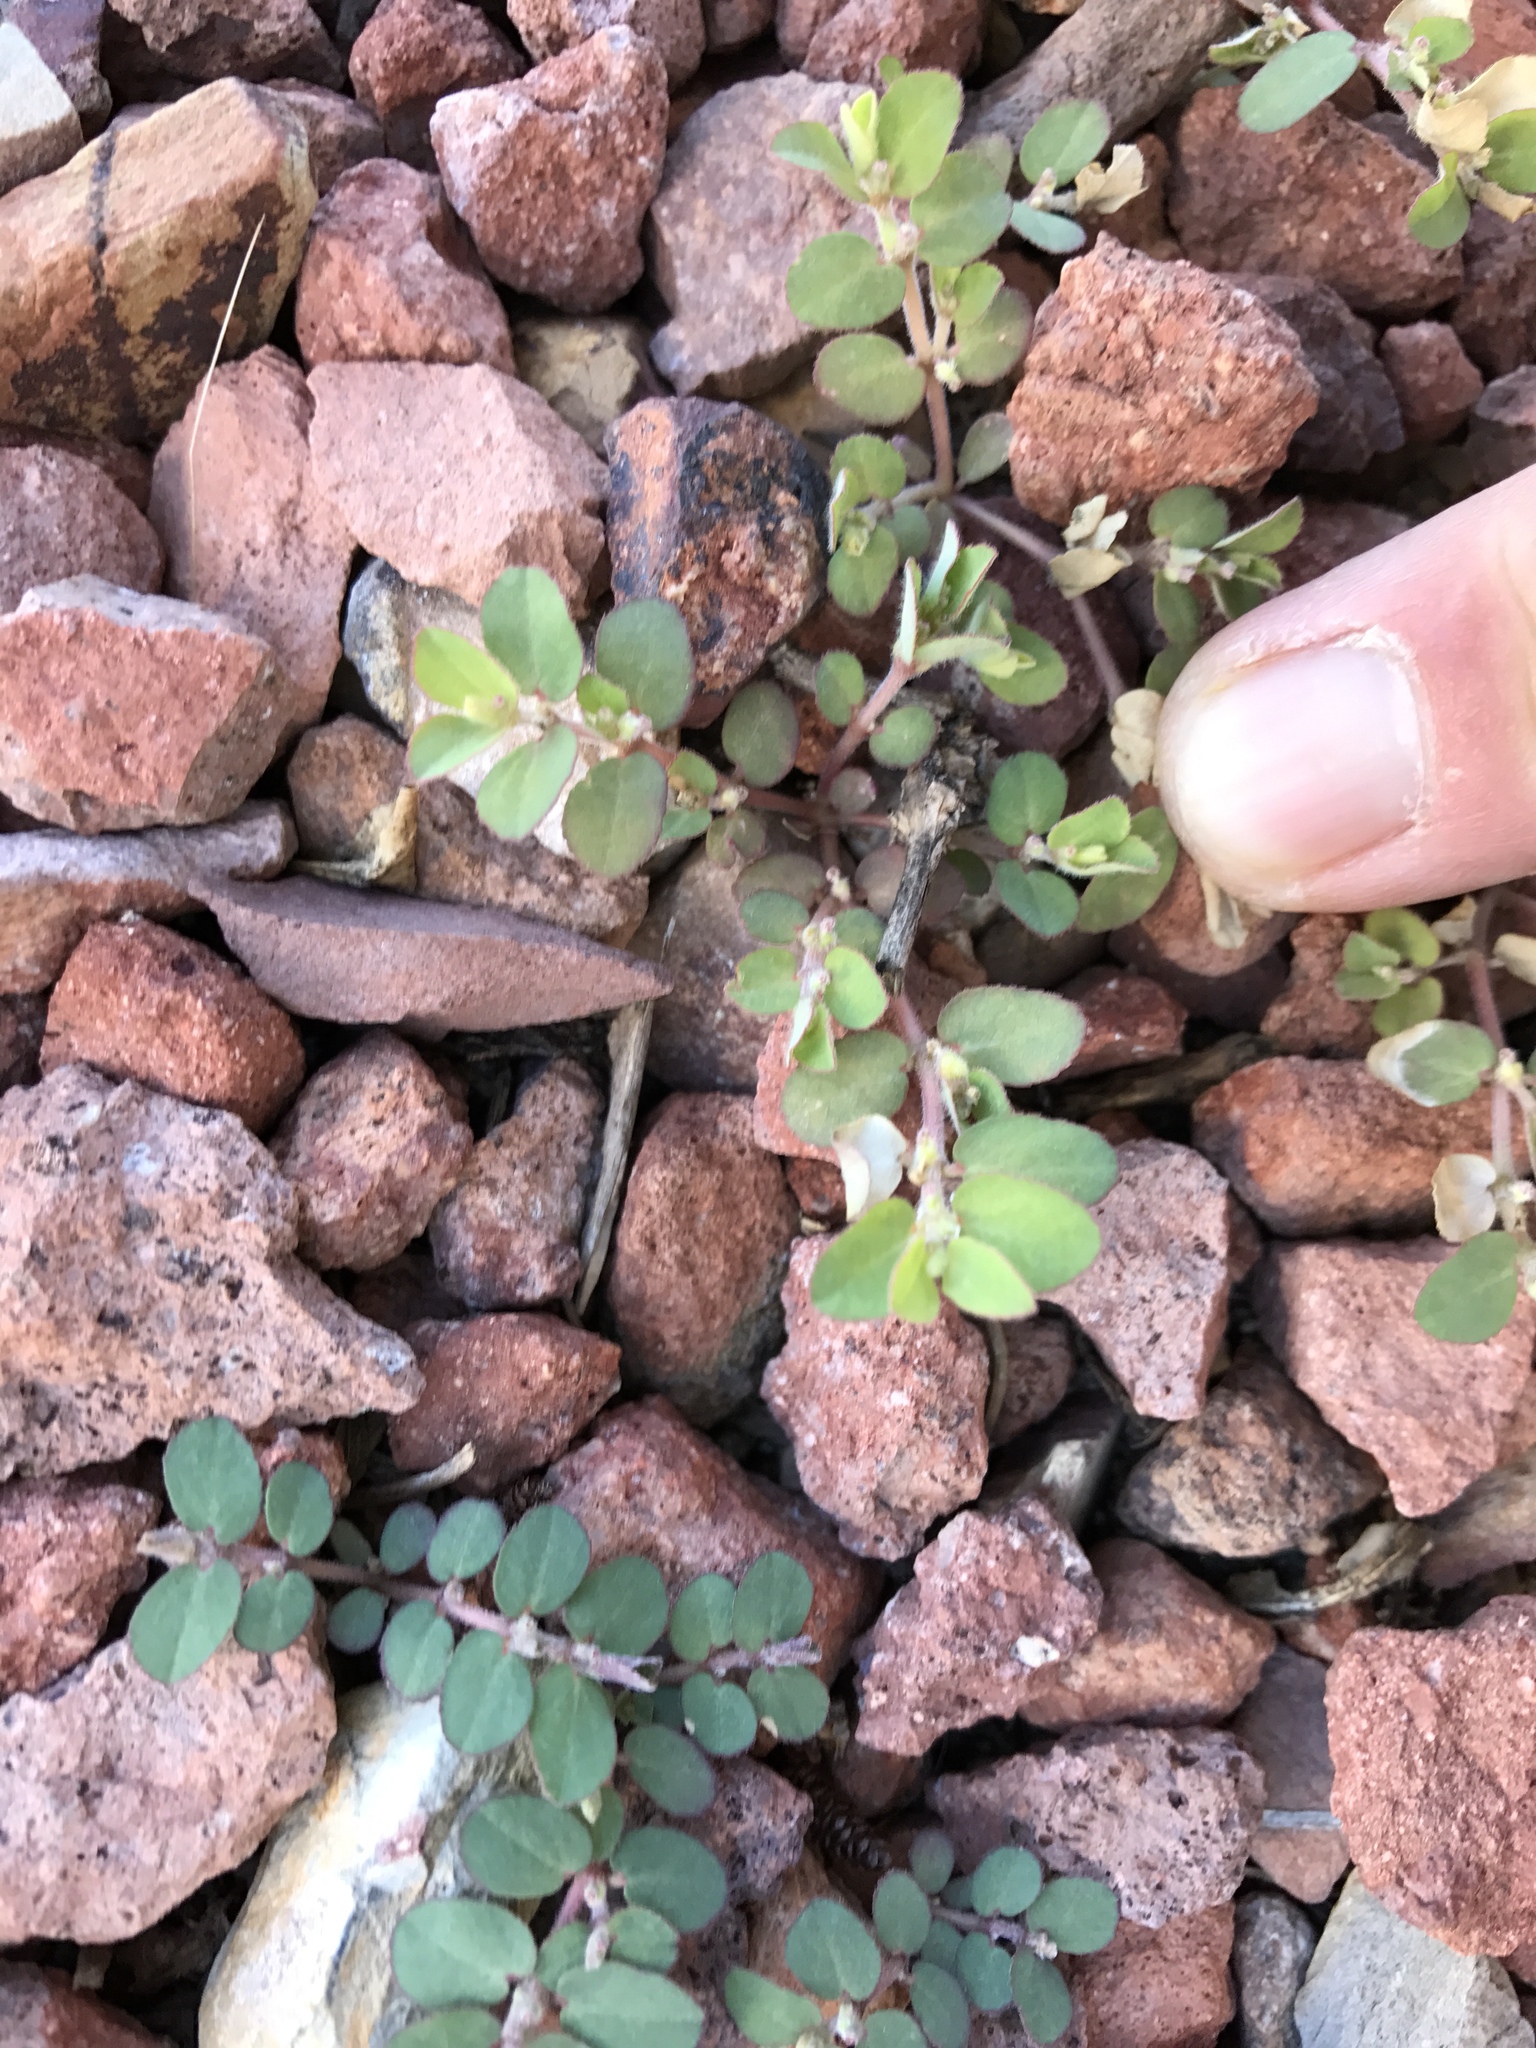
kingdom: Plantae
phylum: Tracheophyta
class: Magnoliopsida
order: Malpighiales
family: Euphorbiaceae
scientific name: Euphorbiaceae
